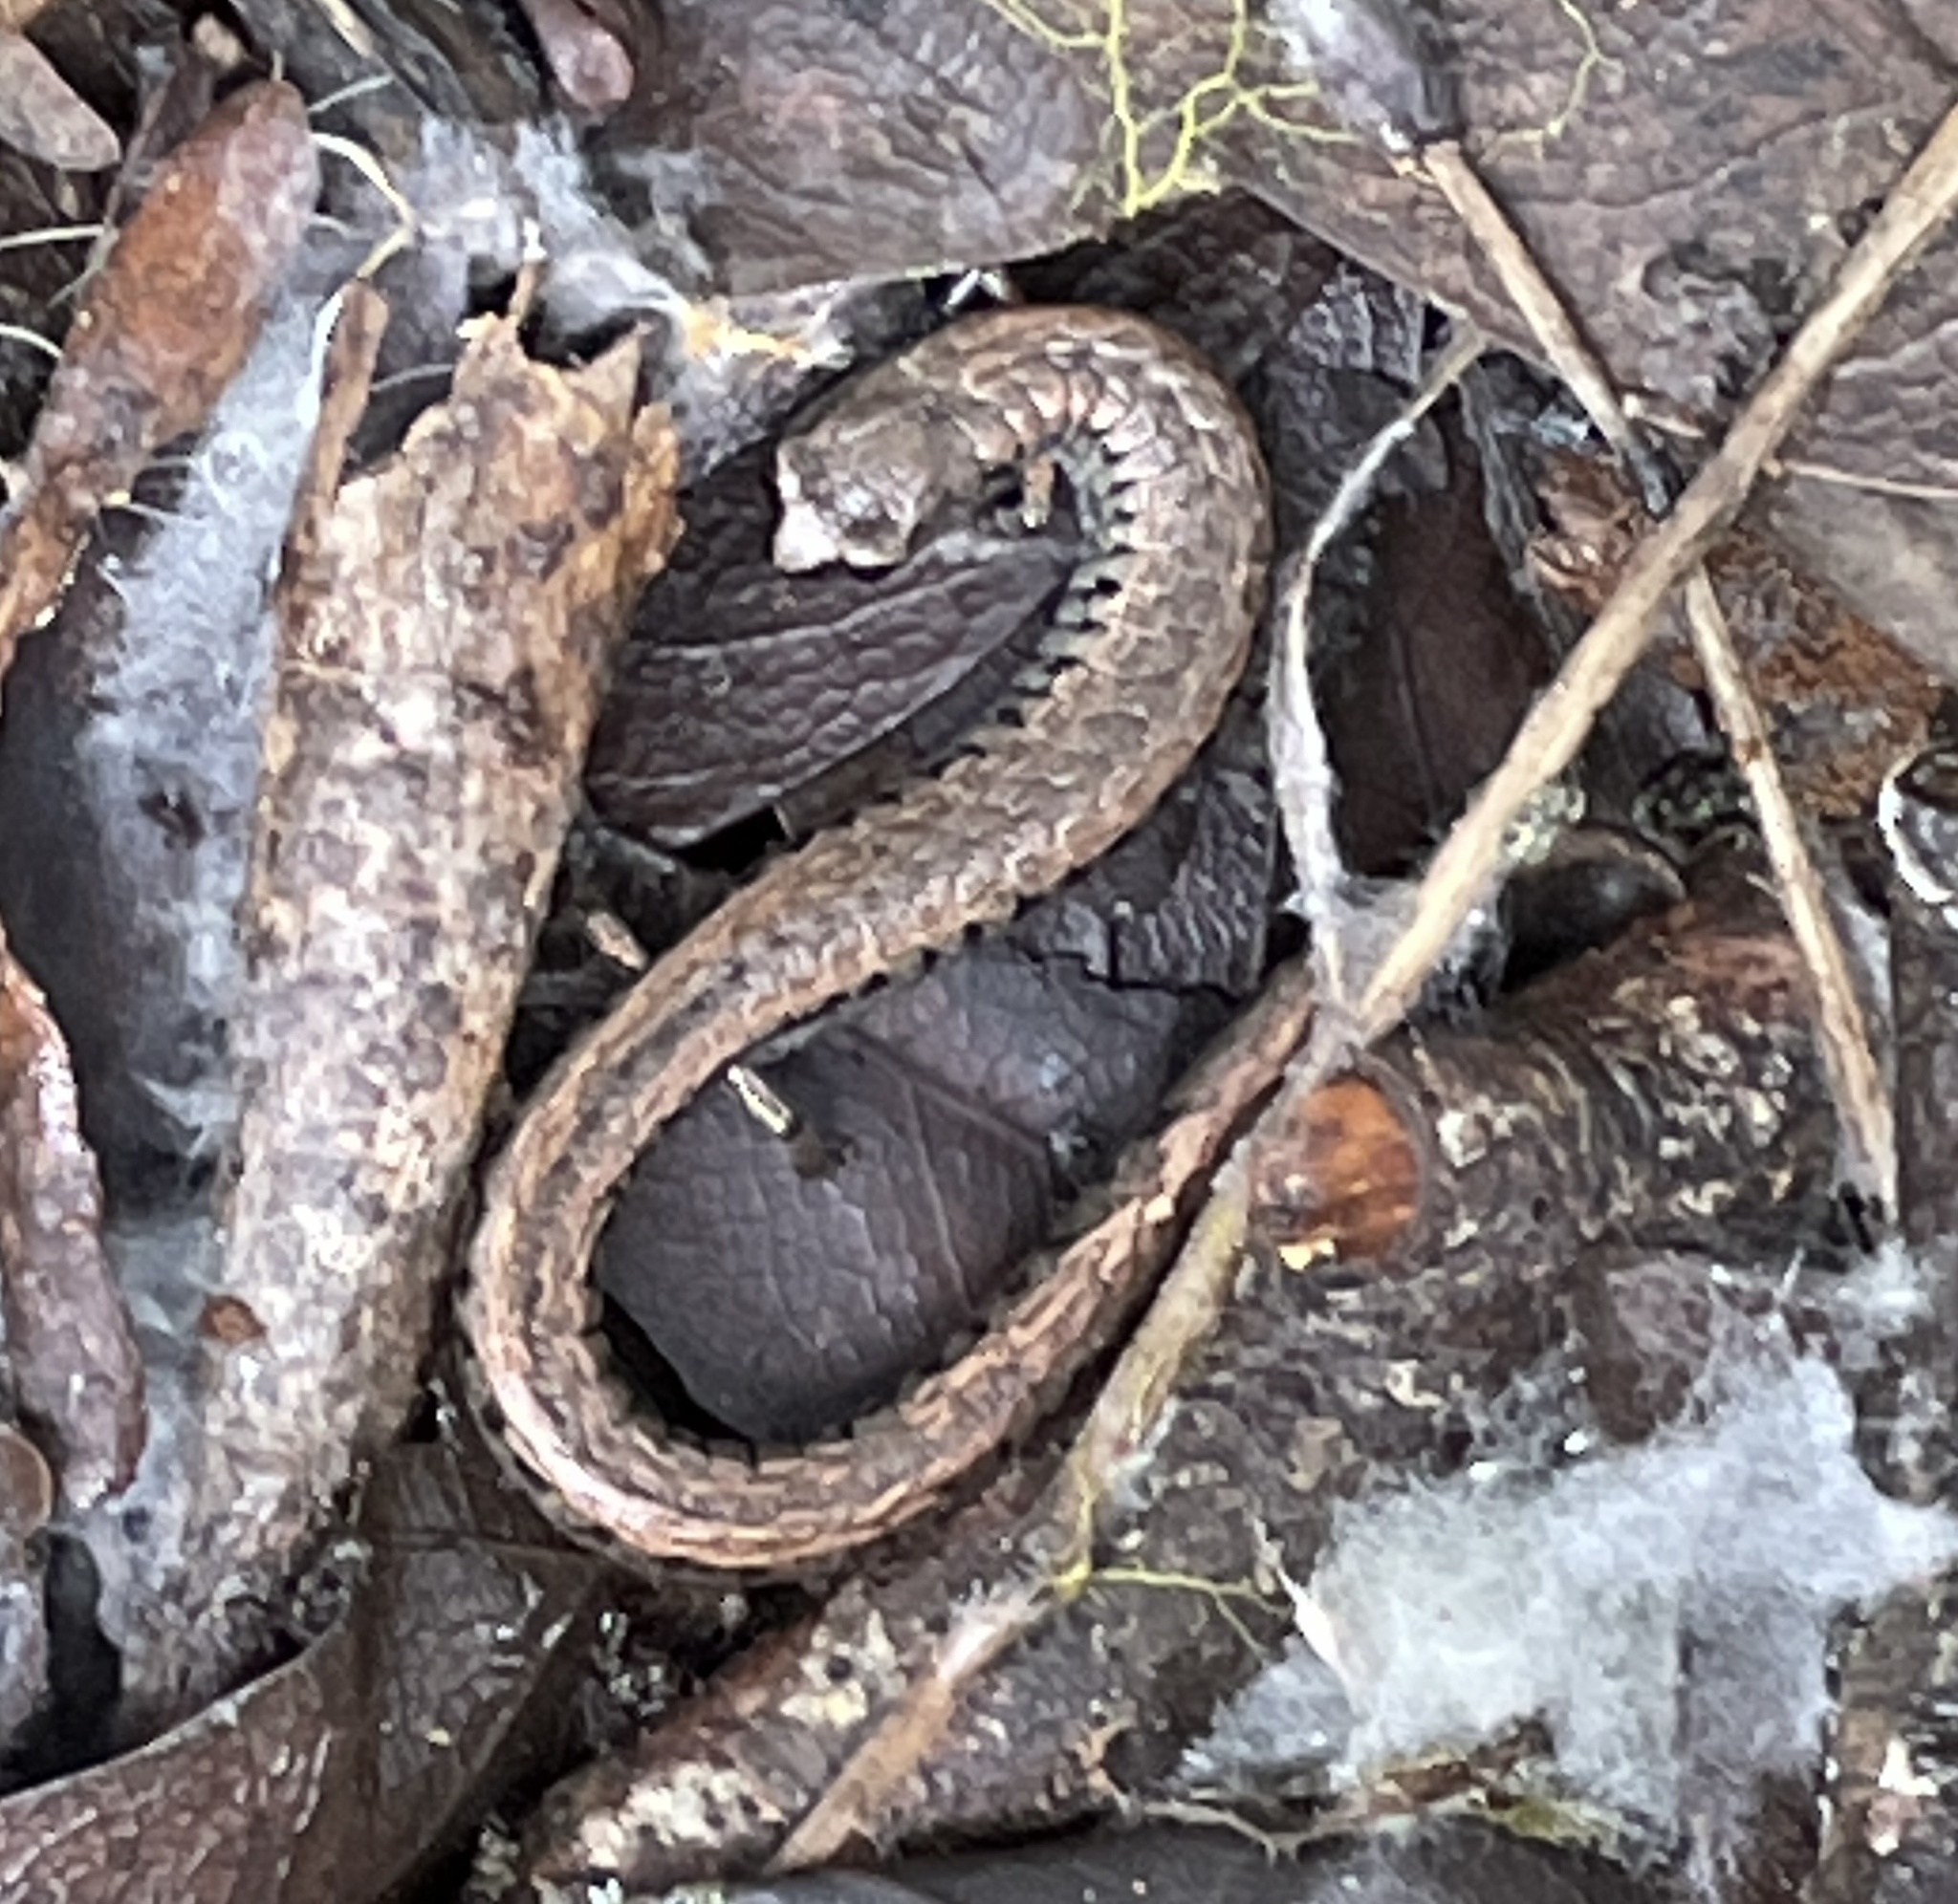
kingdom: Animalia
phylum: Chordata
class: Amphibia
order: Caudata
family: Plethodontidae
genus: Batrachoseps
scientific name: Batrachoseps attenuatus
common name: California slender salamander
